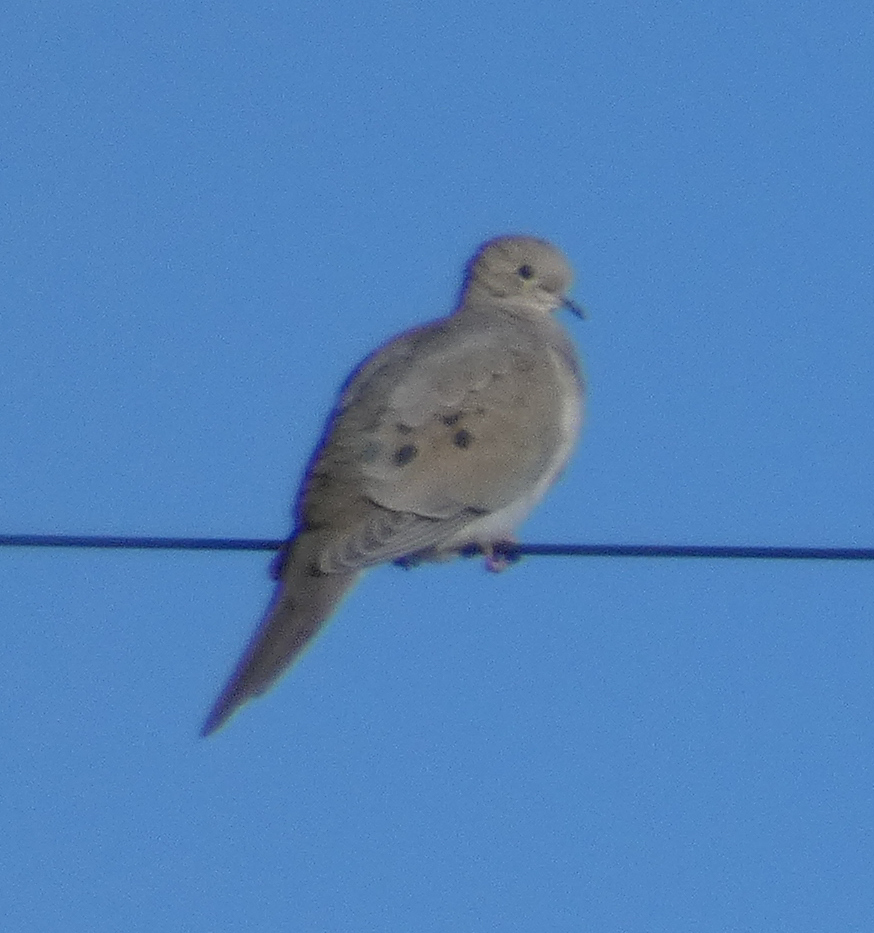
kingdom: Animalia
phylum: Chordata
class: Aves
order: Columbiformes
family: Columbidae
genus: Zenaida
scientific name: Zenaida macroura
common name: Mourning dove
